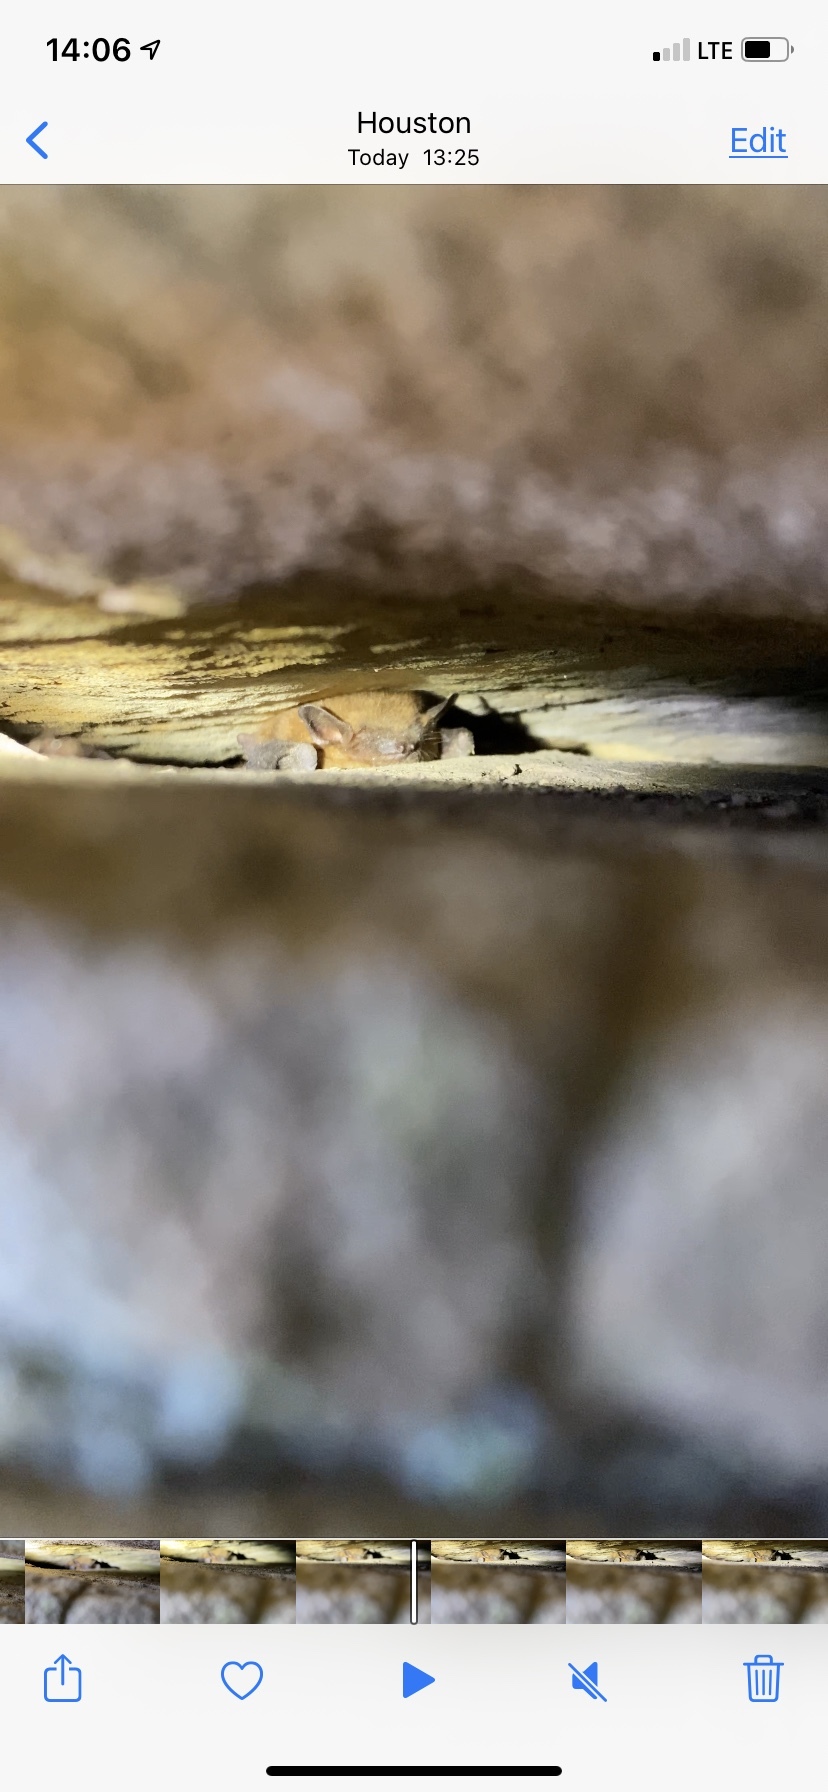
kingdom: Animalia
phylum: Chordata
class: Mammalia
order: Chiroptera
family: Vespertilionidae
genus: Eptesicus
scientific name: Eptesicus fuscus
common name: Big brown bat
